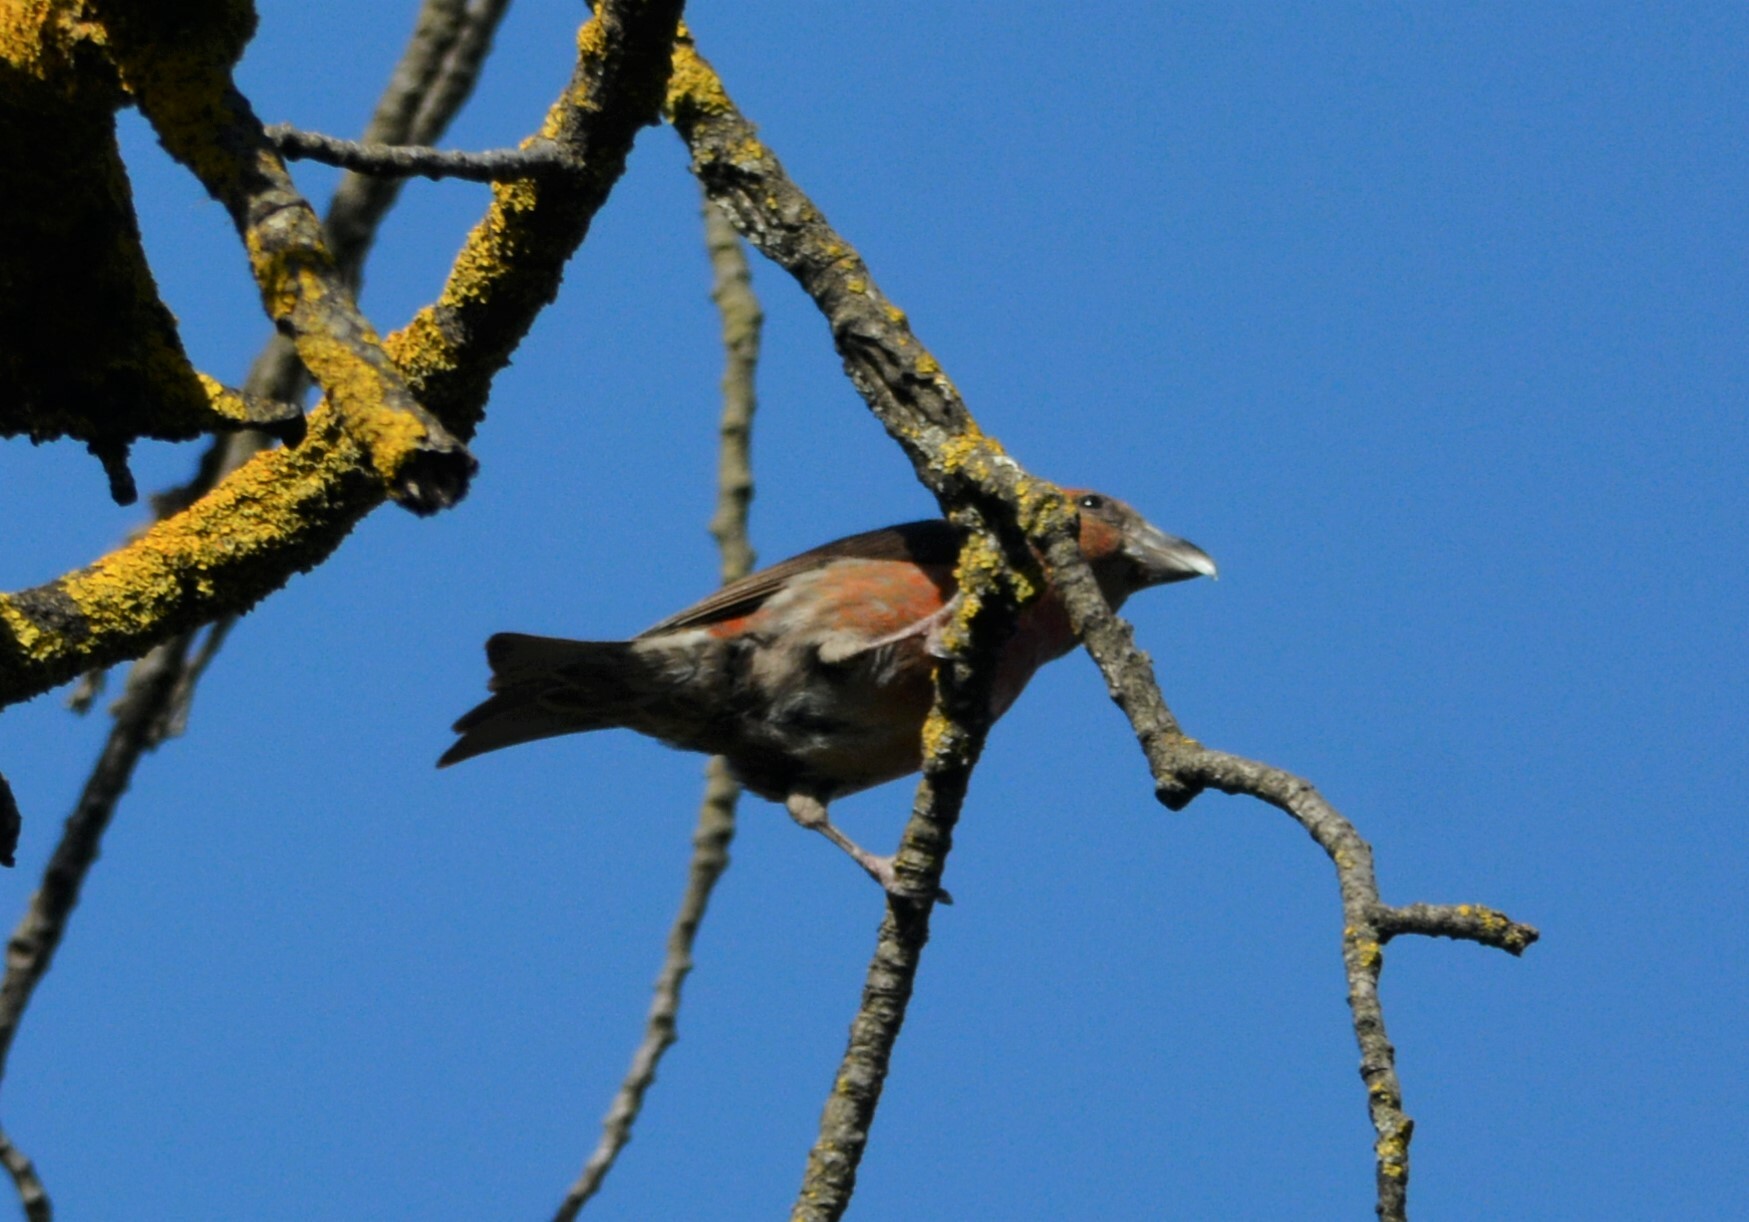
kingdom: Animalia
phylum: Chordata
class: Aves
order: Passeriformes
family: Fringillidae
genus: Loxia
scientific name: Loxia curvirostra
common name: Red crossbill
